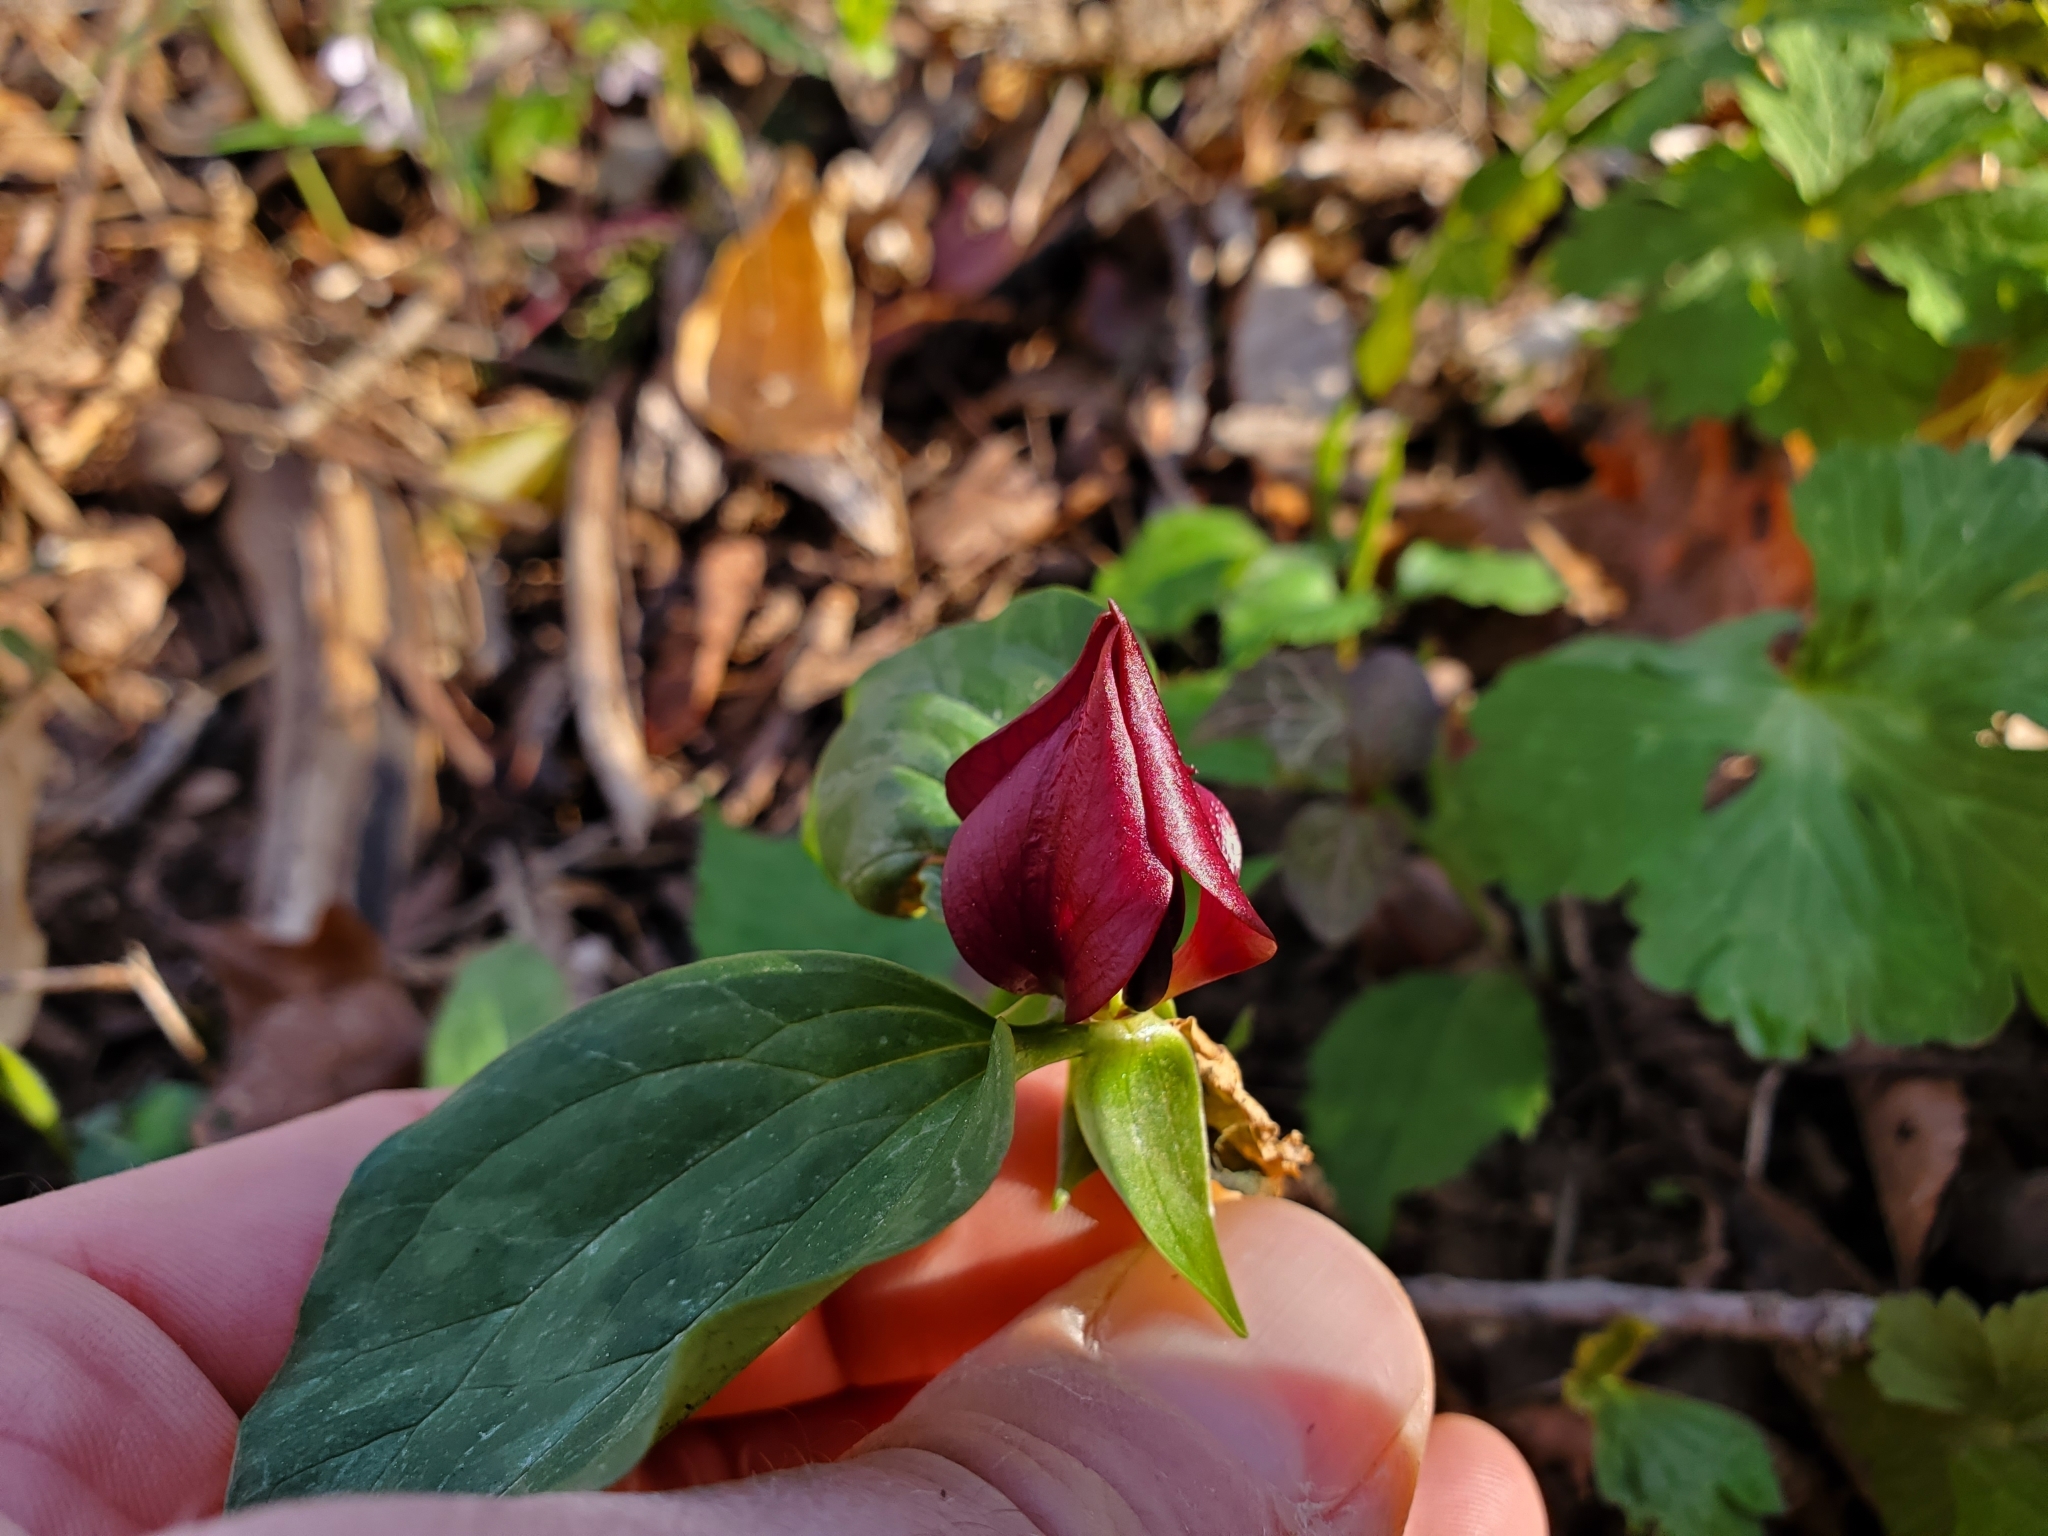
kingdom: Plantae
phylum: Tracheophyta
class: Liliopsida
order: Liliales
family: Melanthiaceae
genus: Trillium
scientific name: Trillium recurvatum
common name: Bloody butcher
